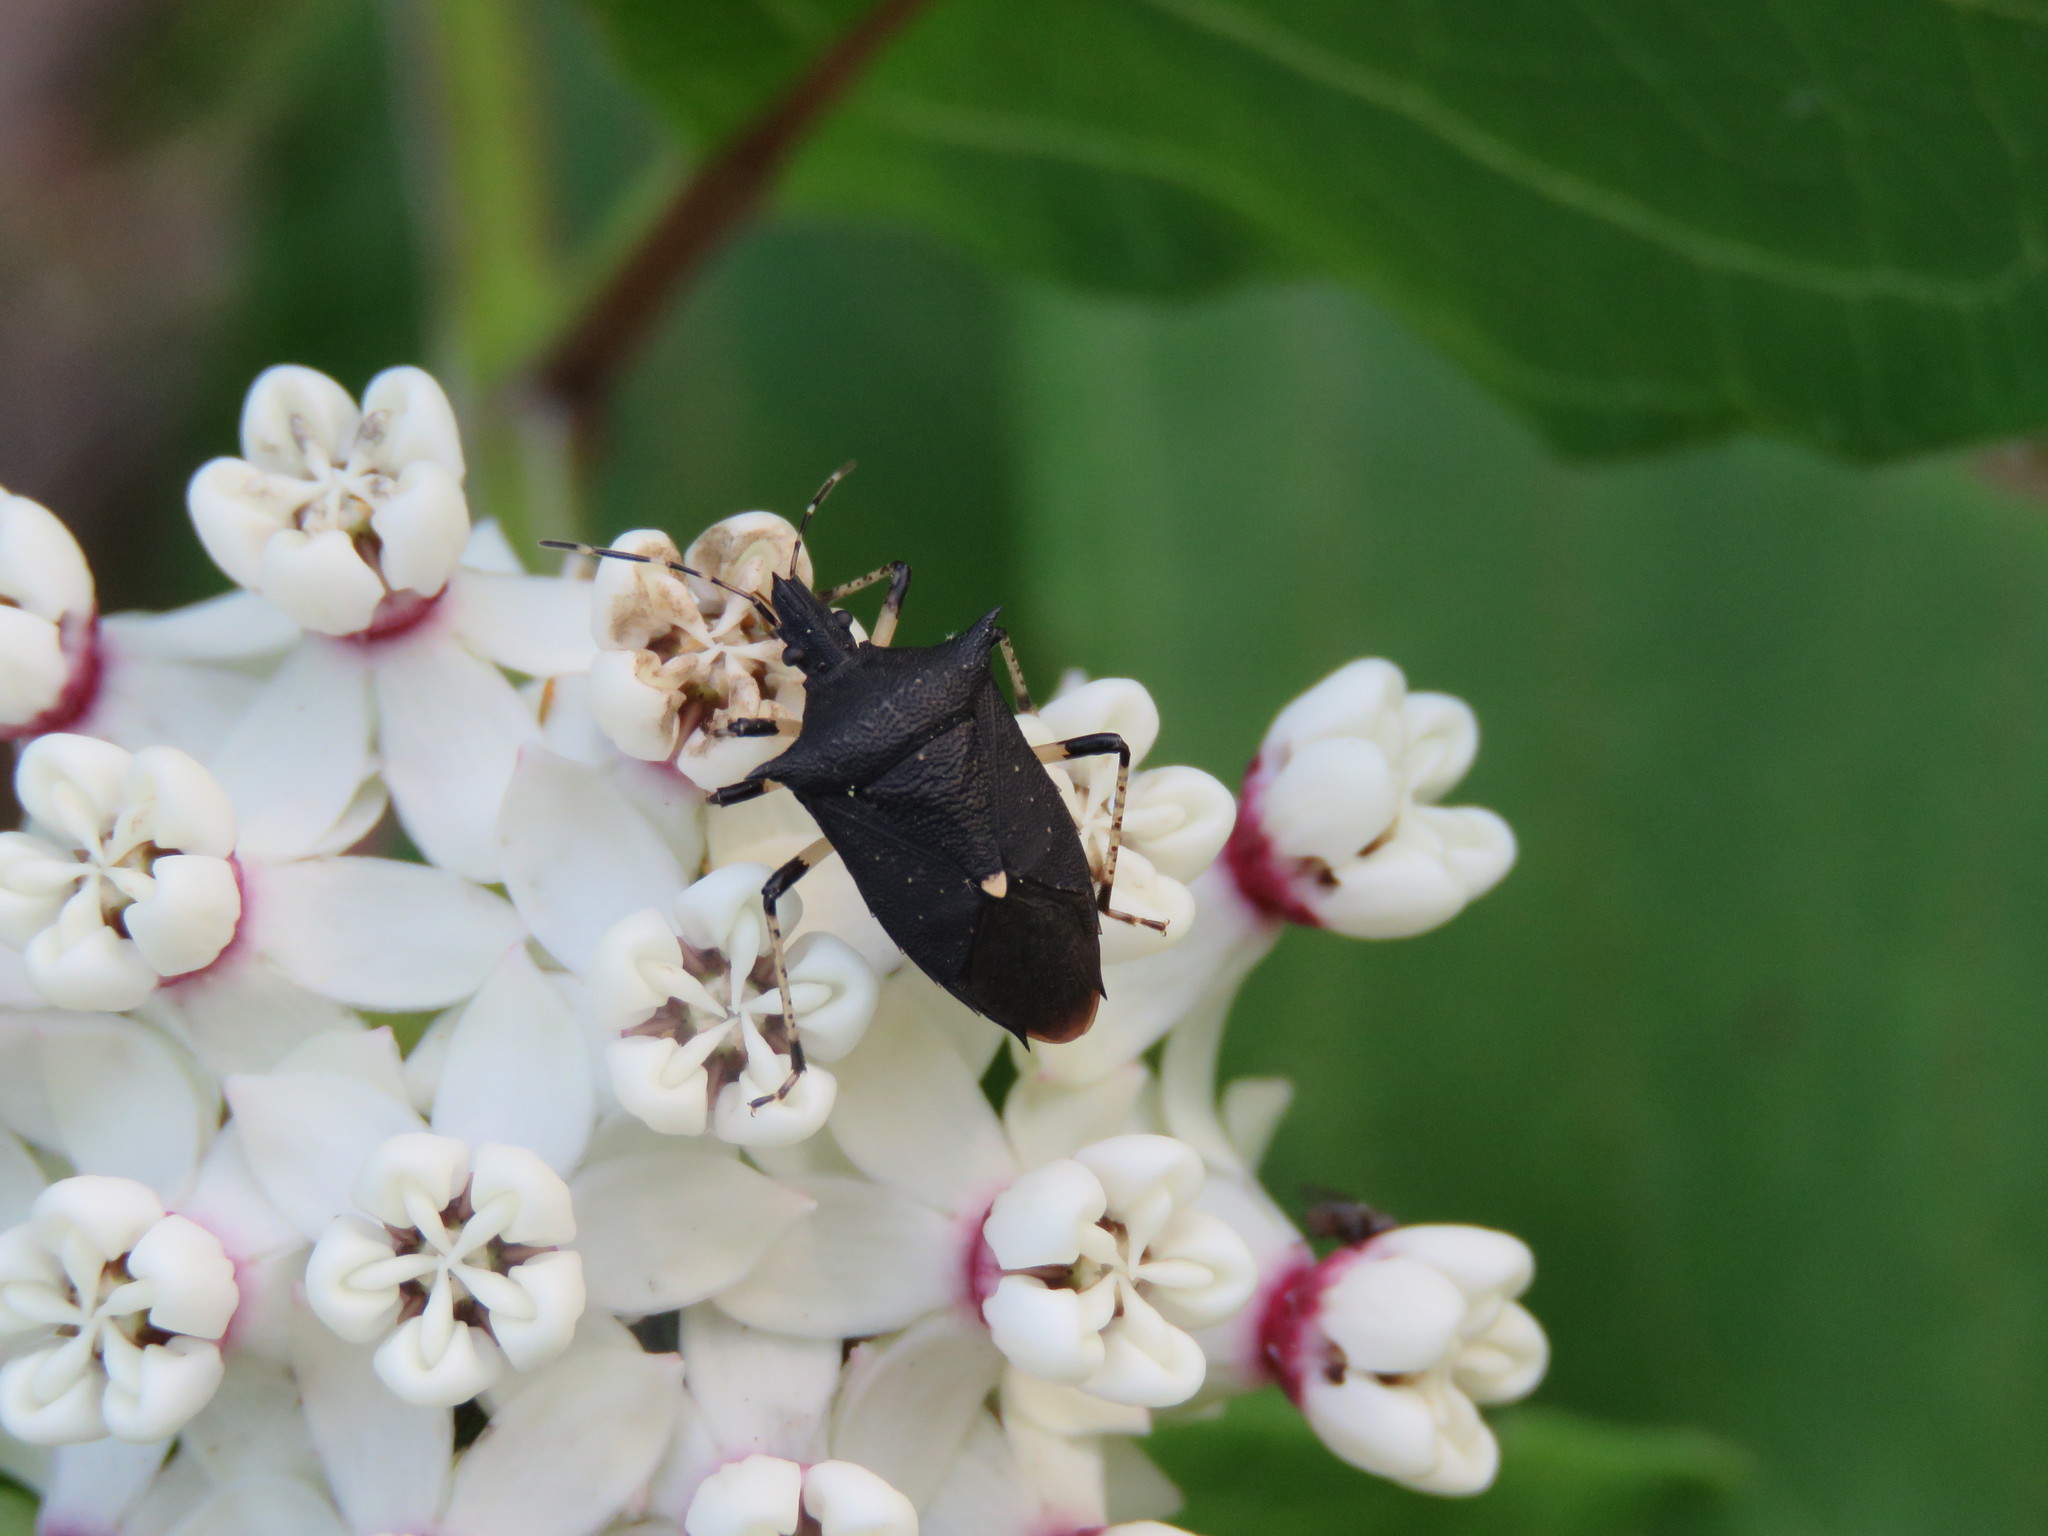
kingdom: Animalia
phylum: Arthropoda
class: Insecta
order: Hemiptera
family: Pentatomidae
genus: Proxys
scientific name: Proxys punctulatus
